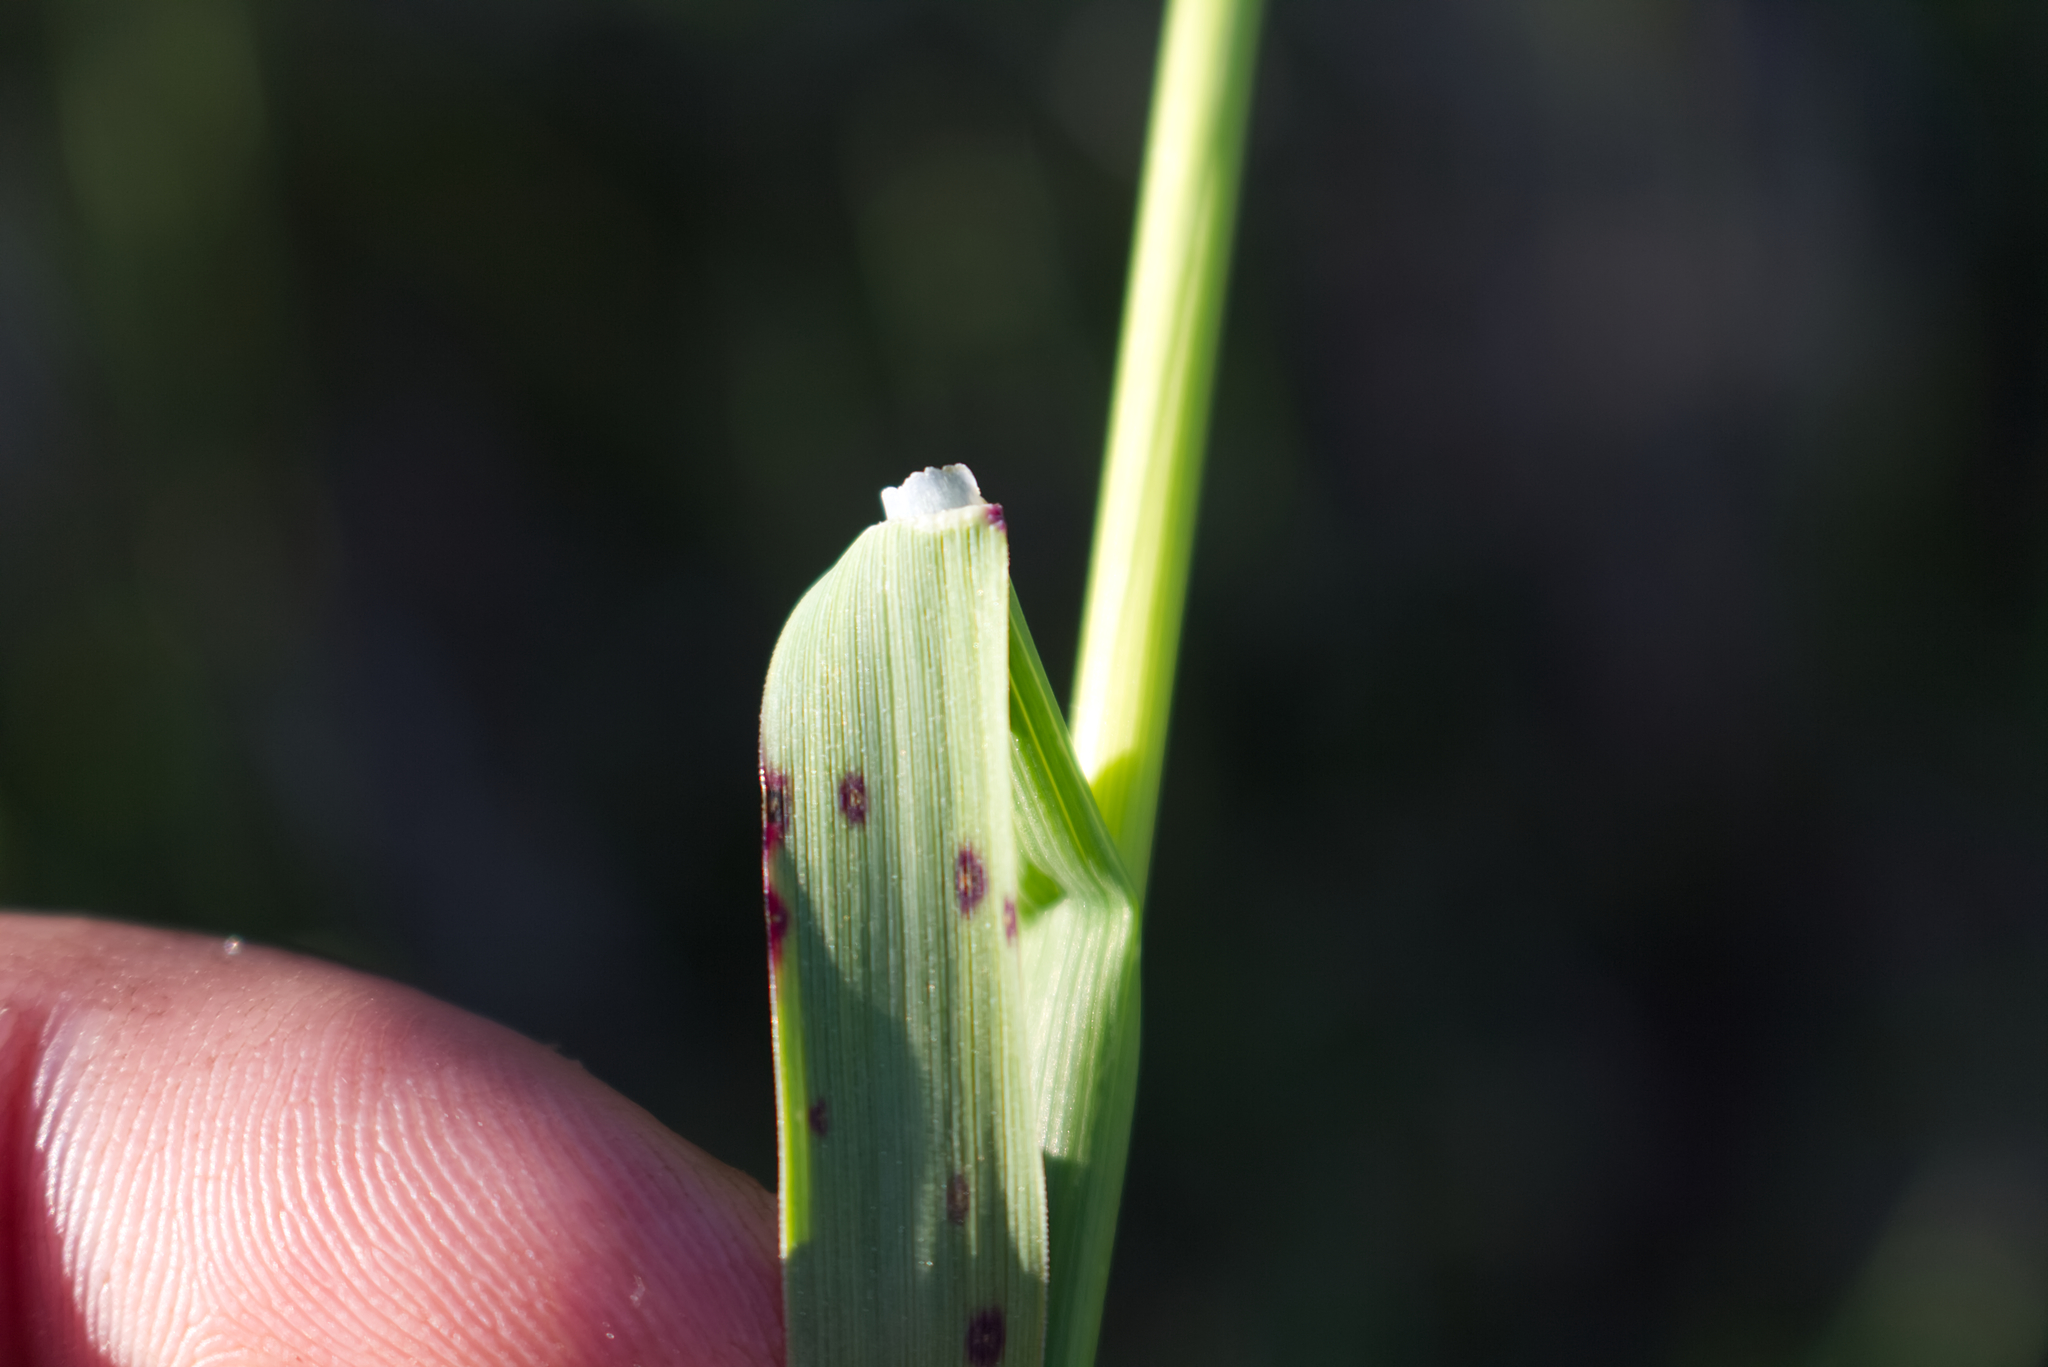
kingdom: Plantae
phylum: Tracheophyta
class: Liliopsida
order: Poales
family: Poaceae
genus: Briza
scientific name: Briza media
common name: Quaking grass
